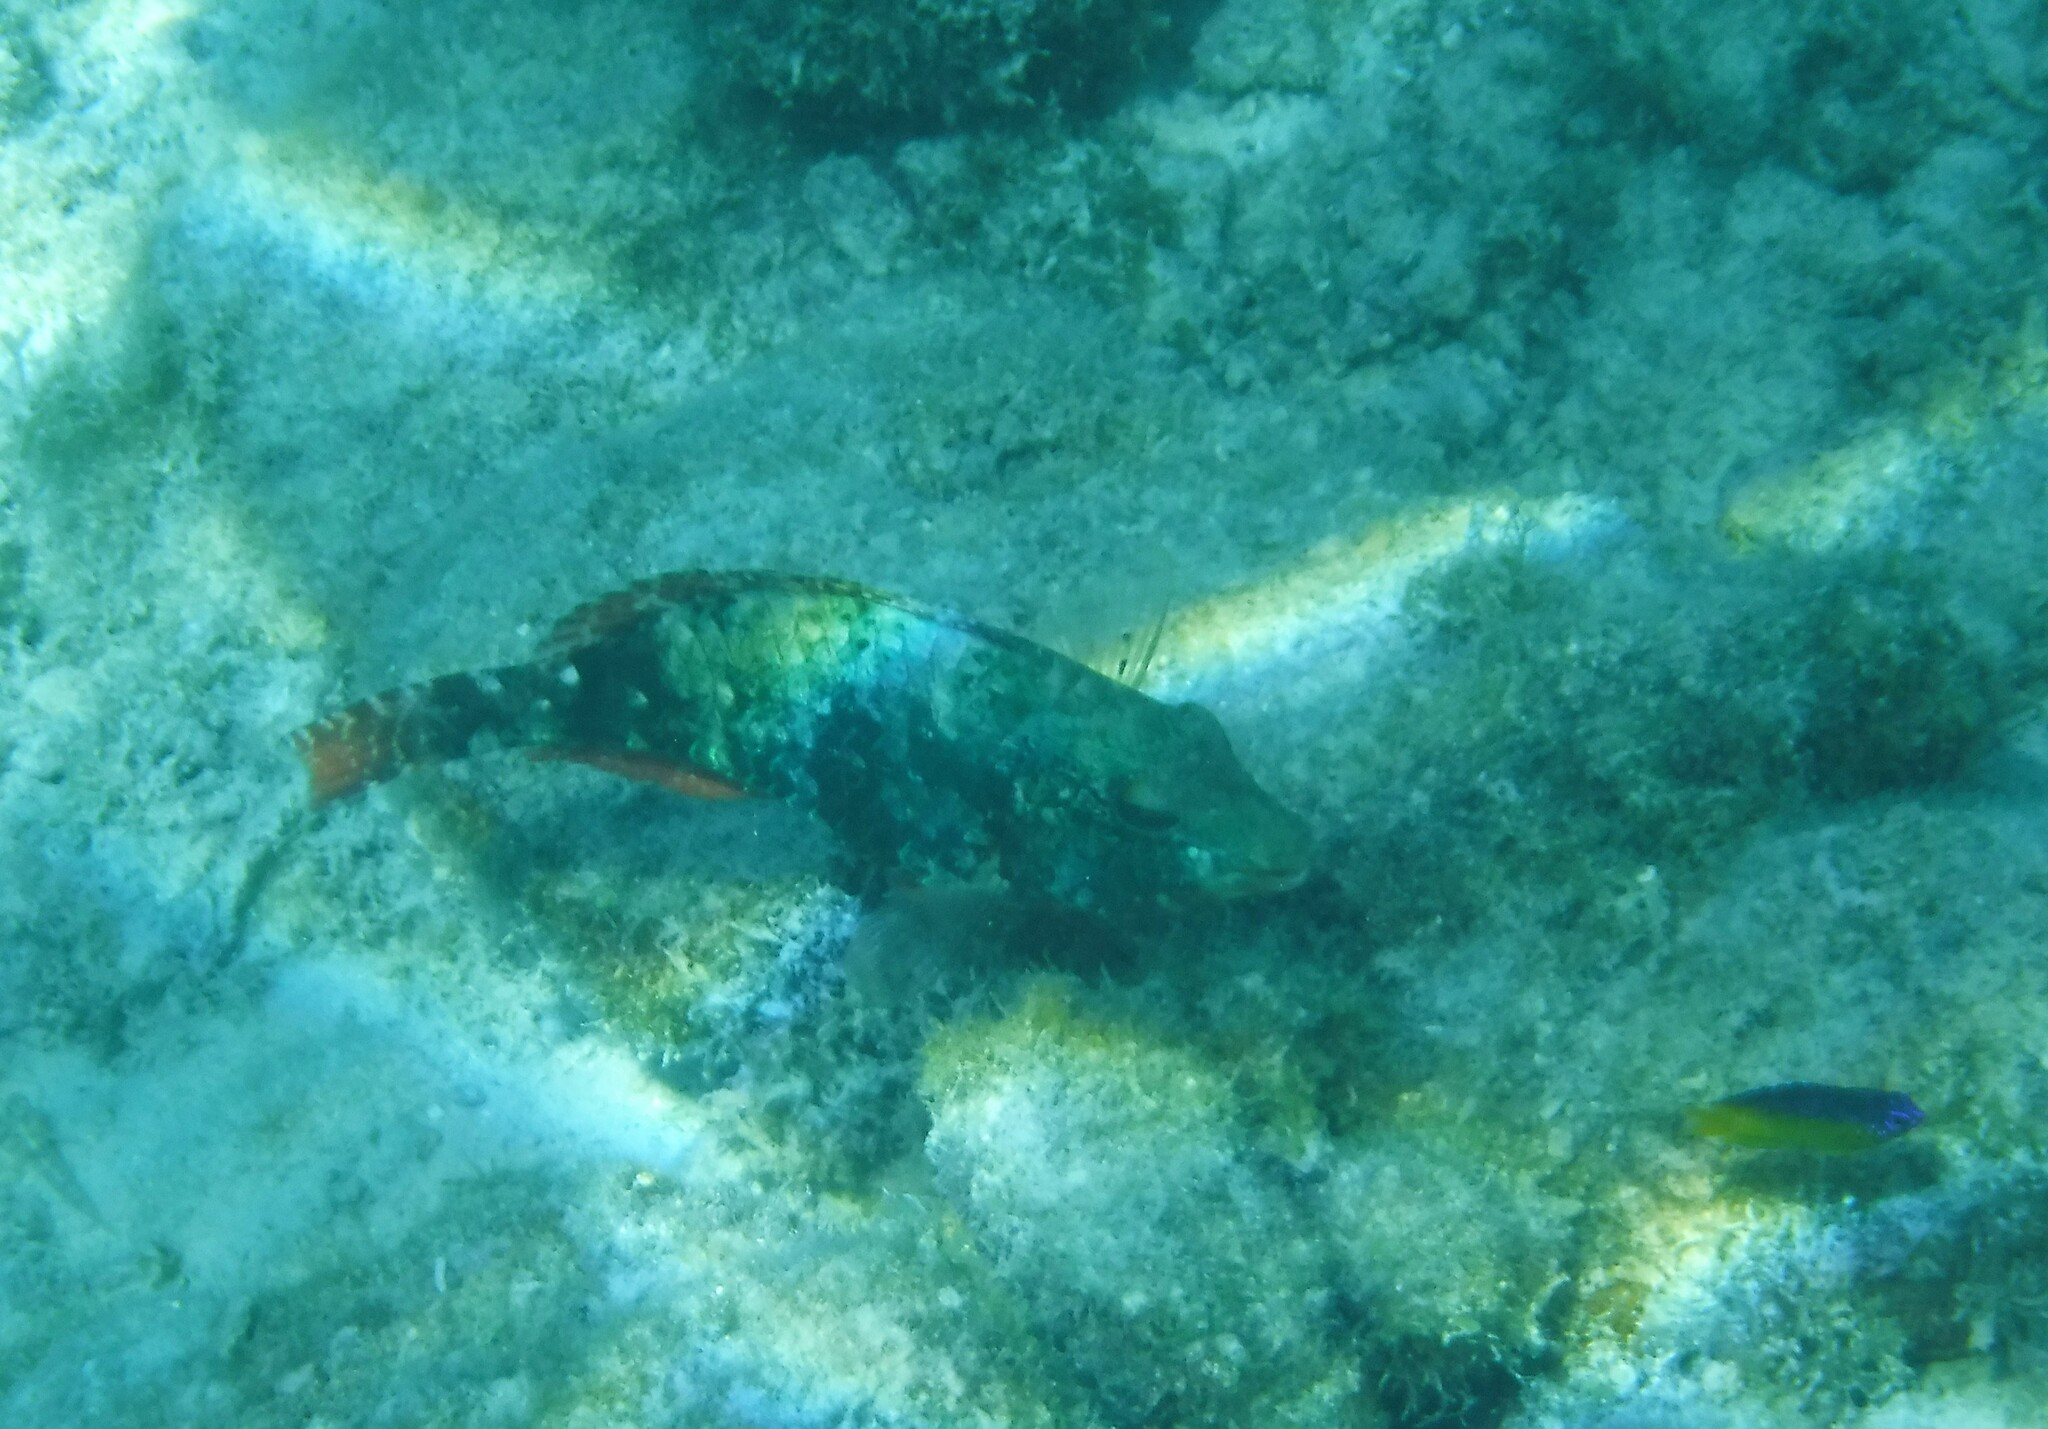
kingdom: Animalia
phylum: Chordata
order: Perciformes
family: Scaridae
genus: Sparisoma
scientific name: Sparisoma aurofrenatum
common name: Redband parrotfish
